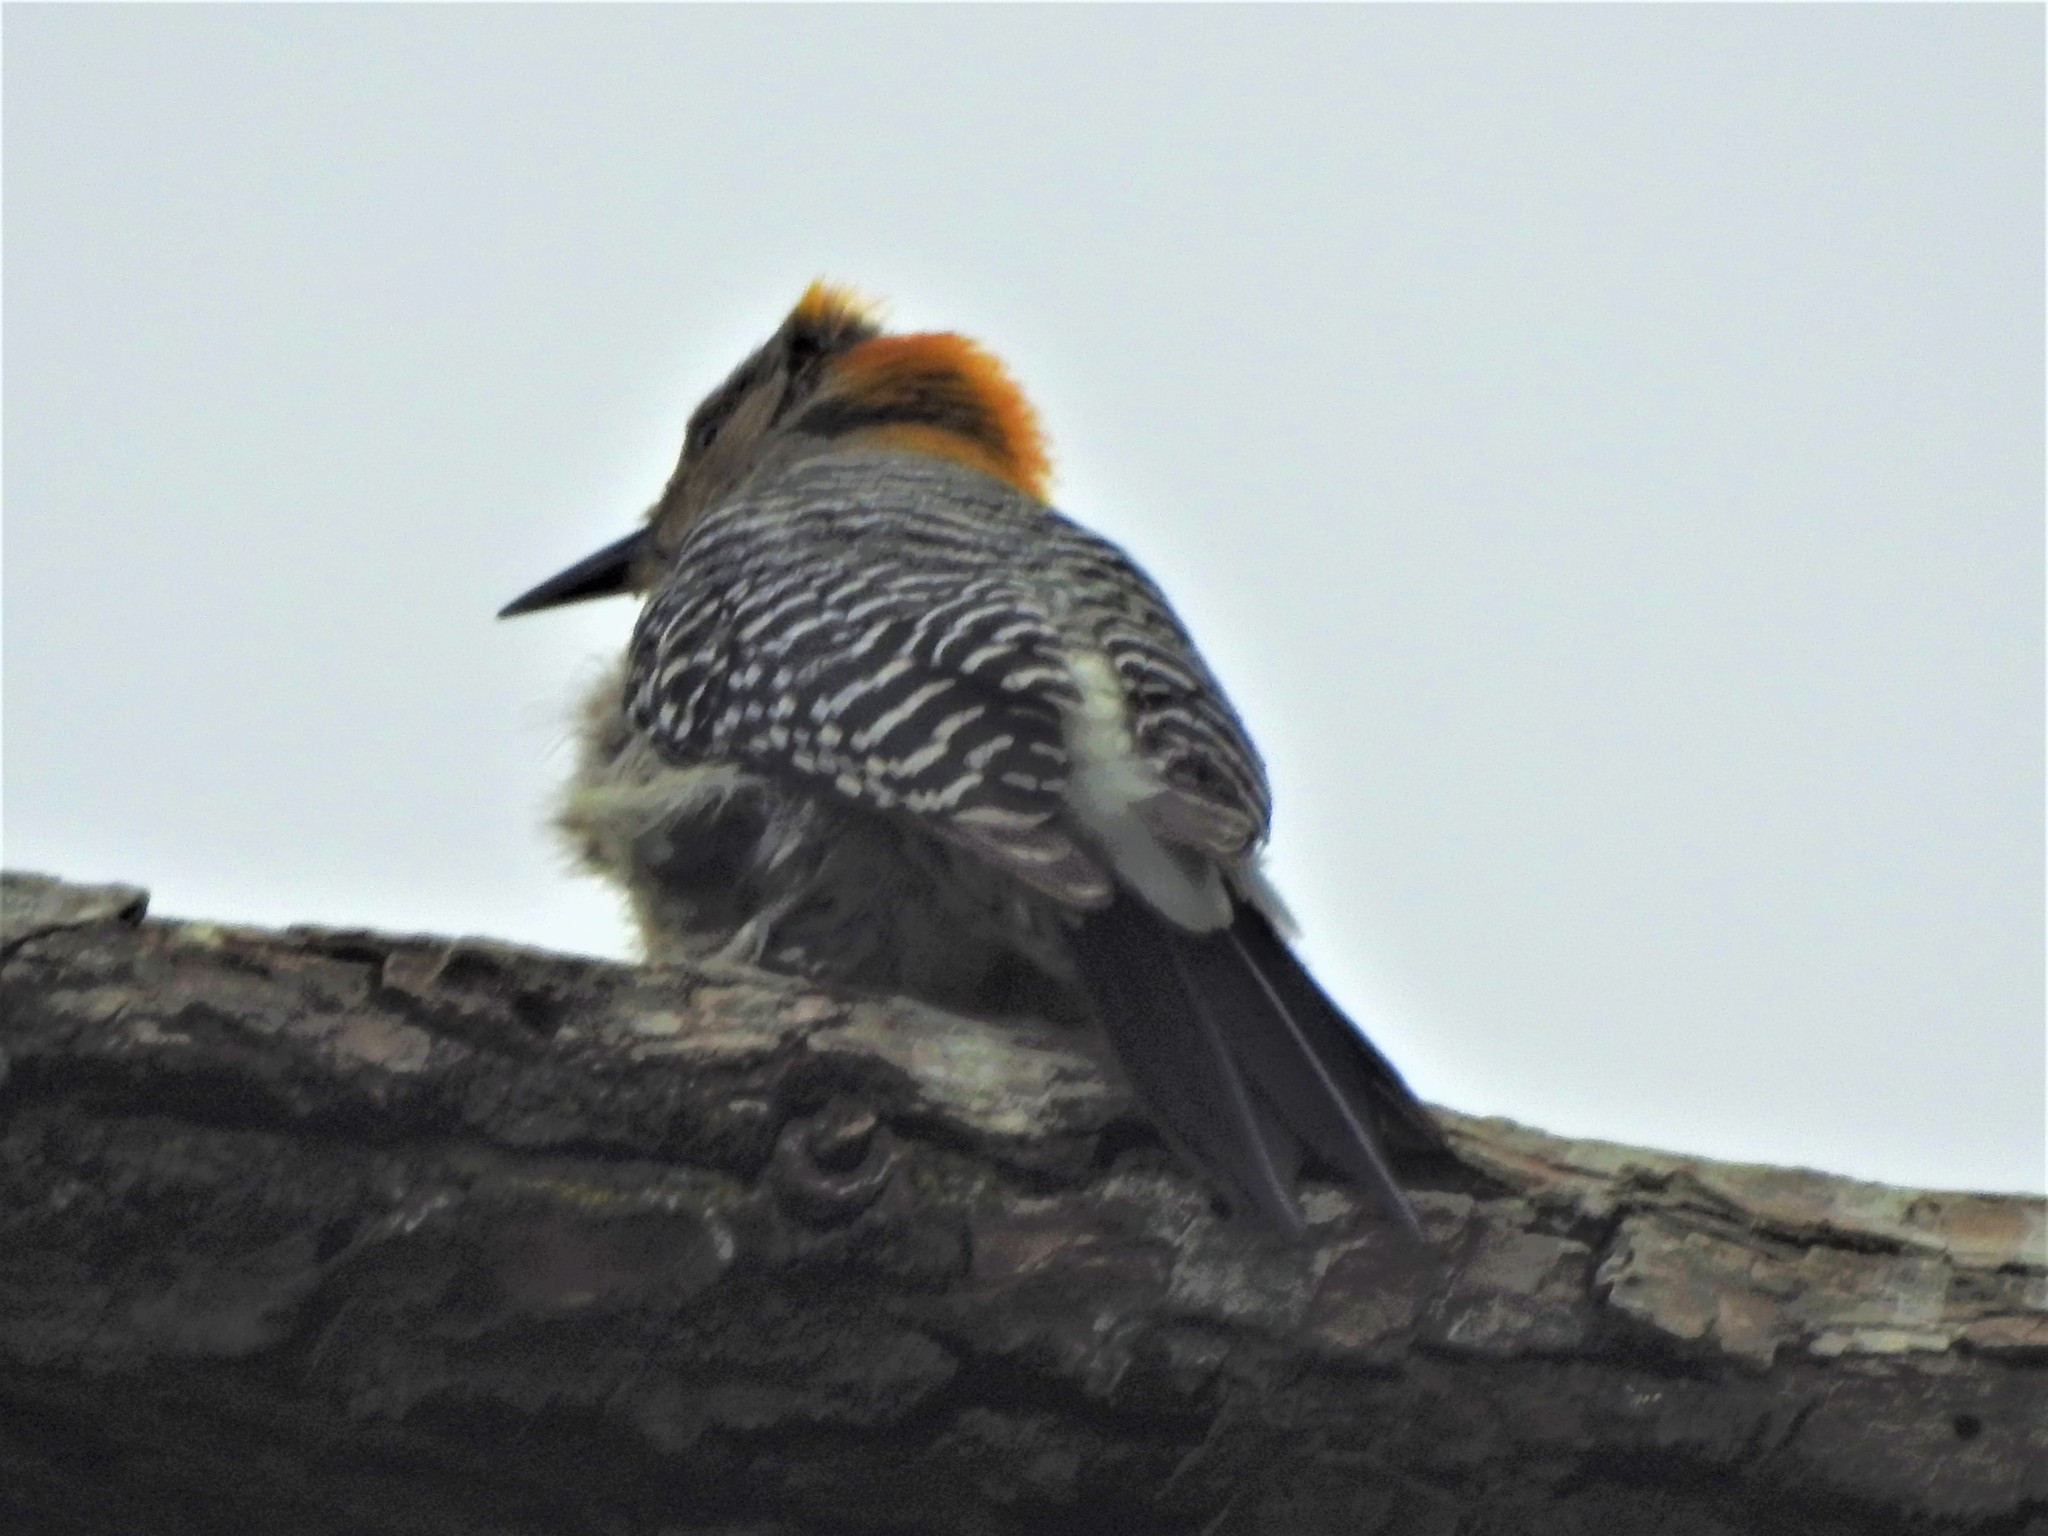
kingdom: Animalia
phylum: Chordata
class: Aves
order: Piciformes
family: Picidae
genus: Melanerpes
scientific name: Melanerpes aurifrons
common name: Golden-fronted woodpecker
